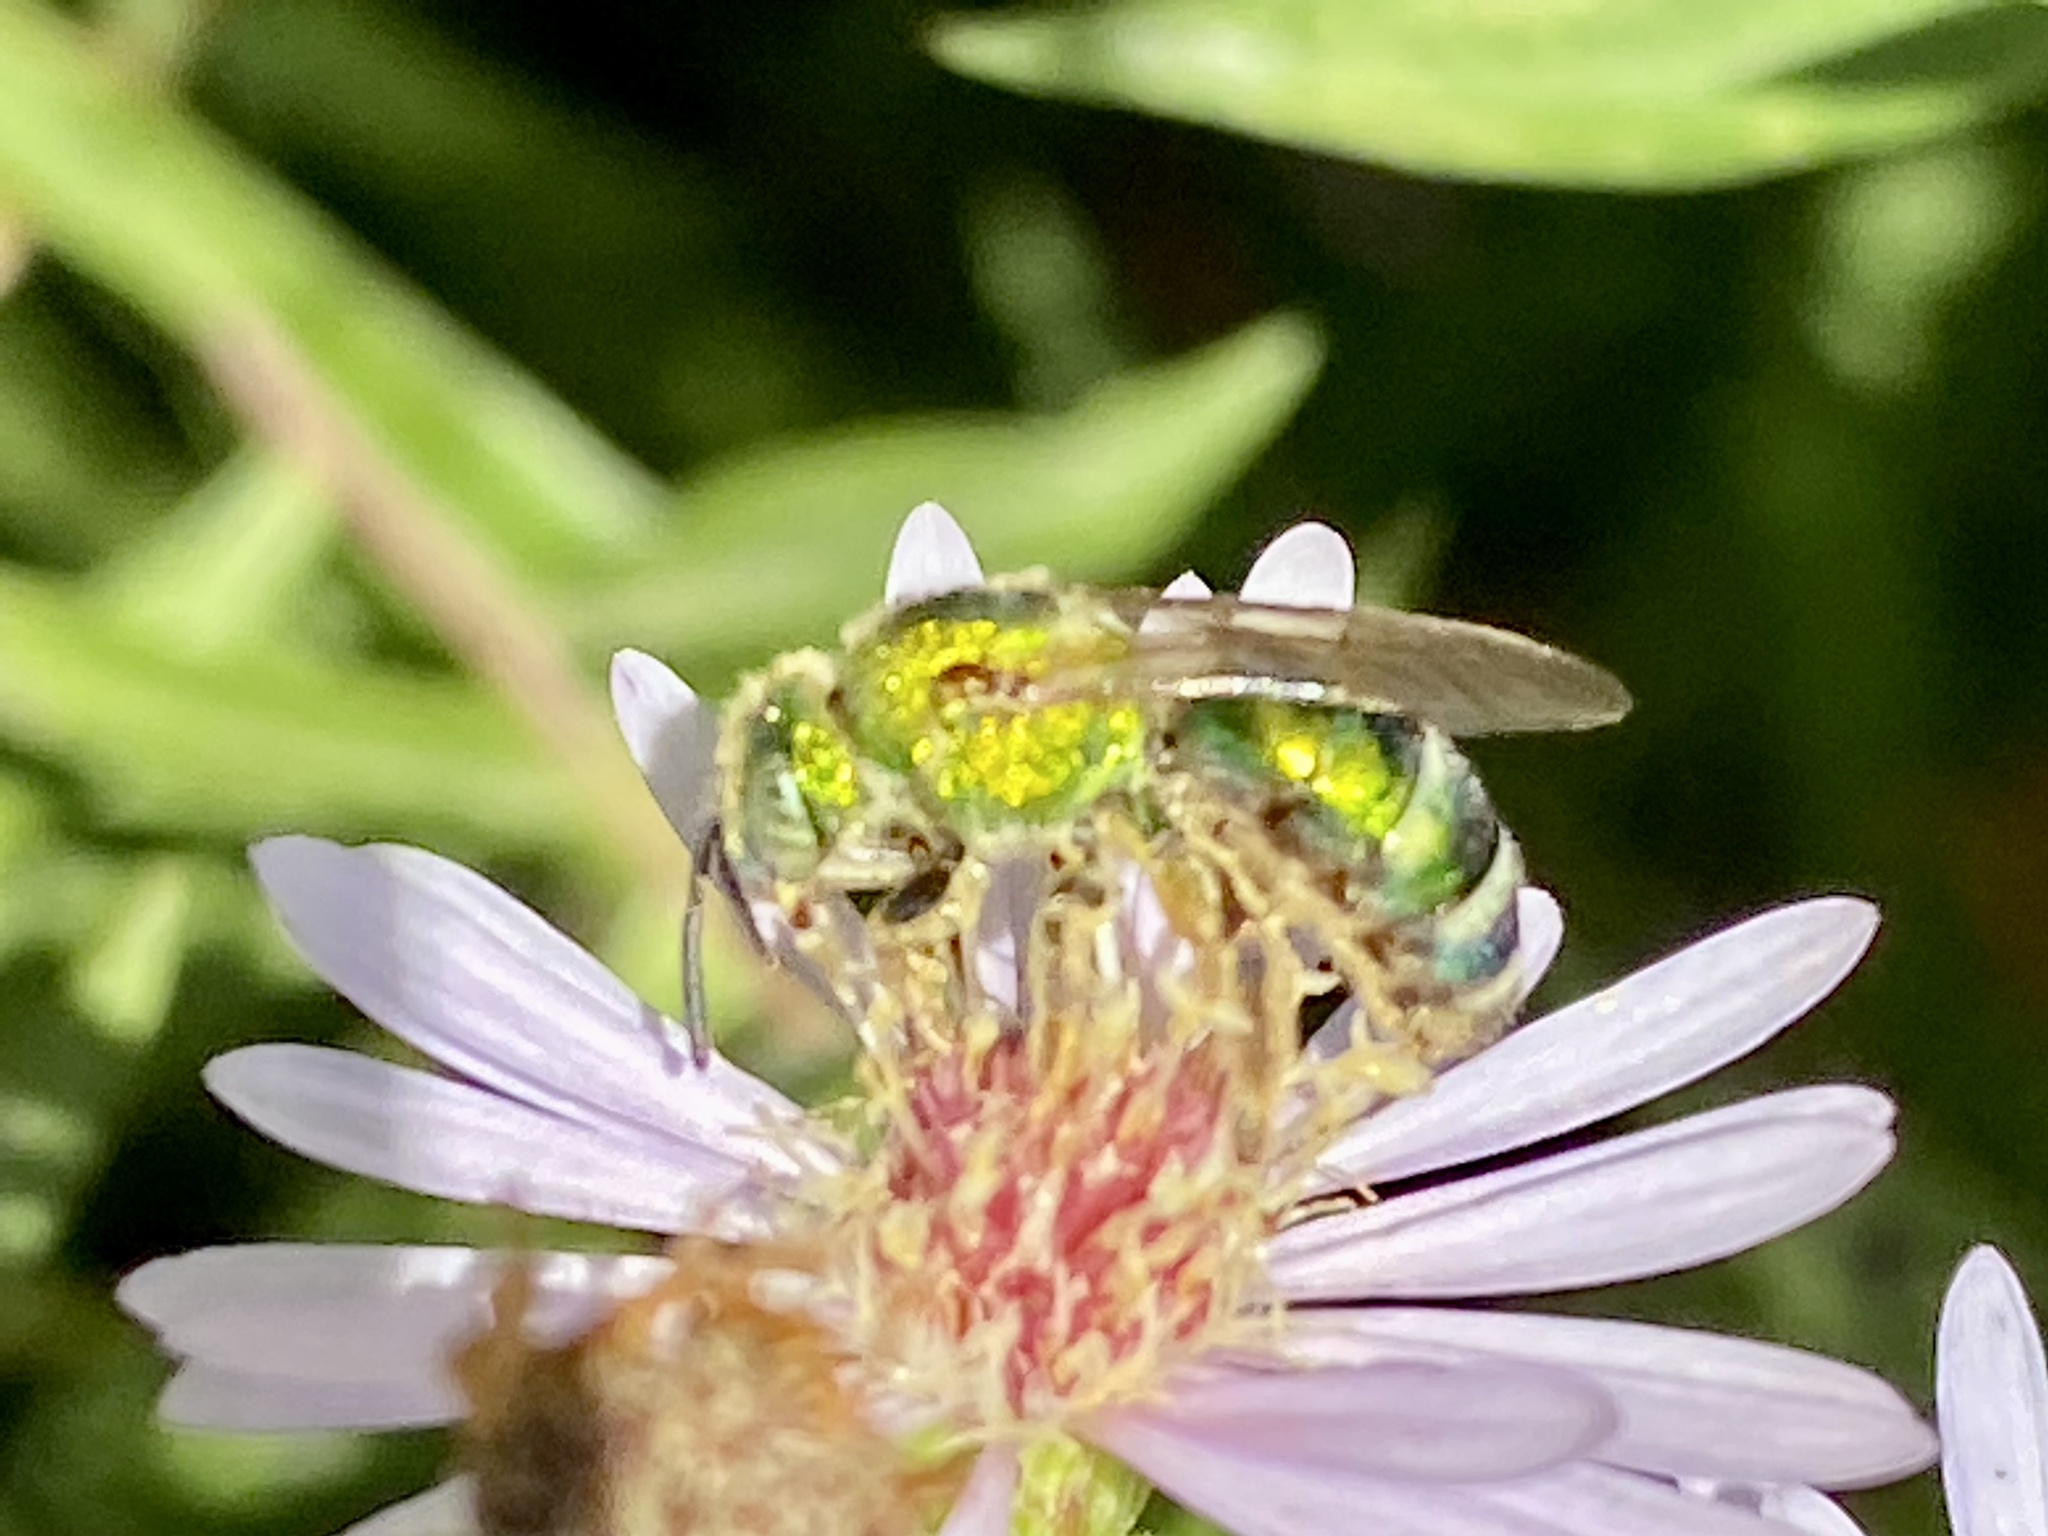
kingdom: Animalia
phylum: Arthropoda
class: Insecta
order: Hymenoptera
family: Halictidae
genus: Agapostemon
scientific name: Agapostemon sericeus
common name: Silky striped sweat bee
